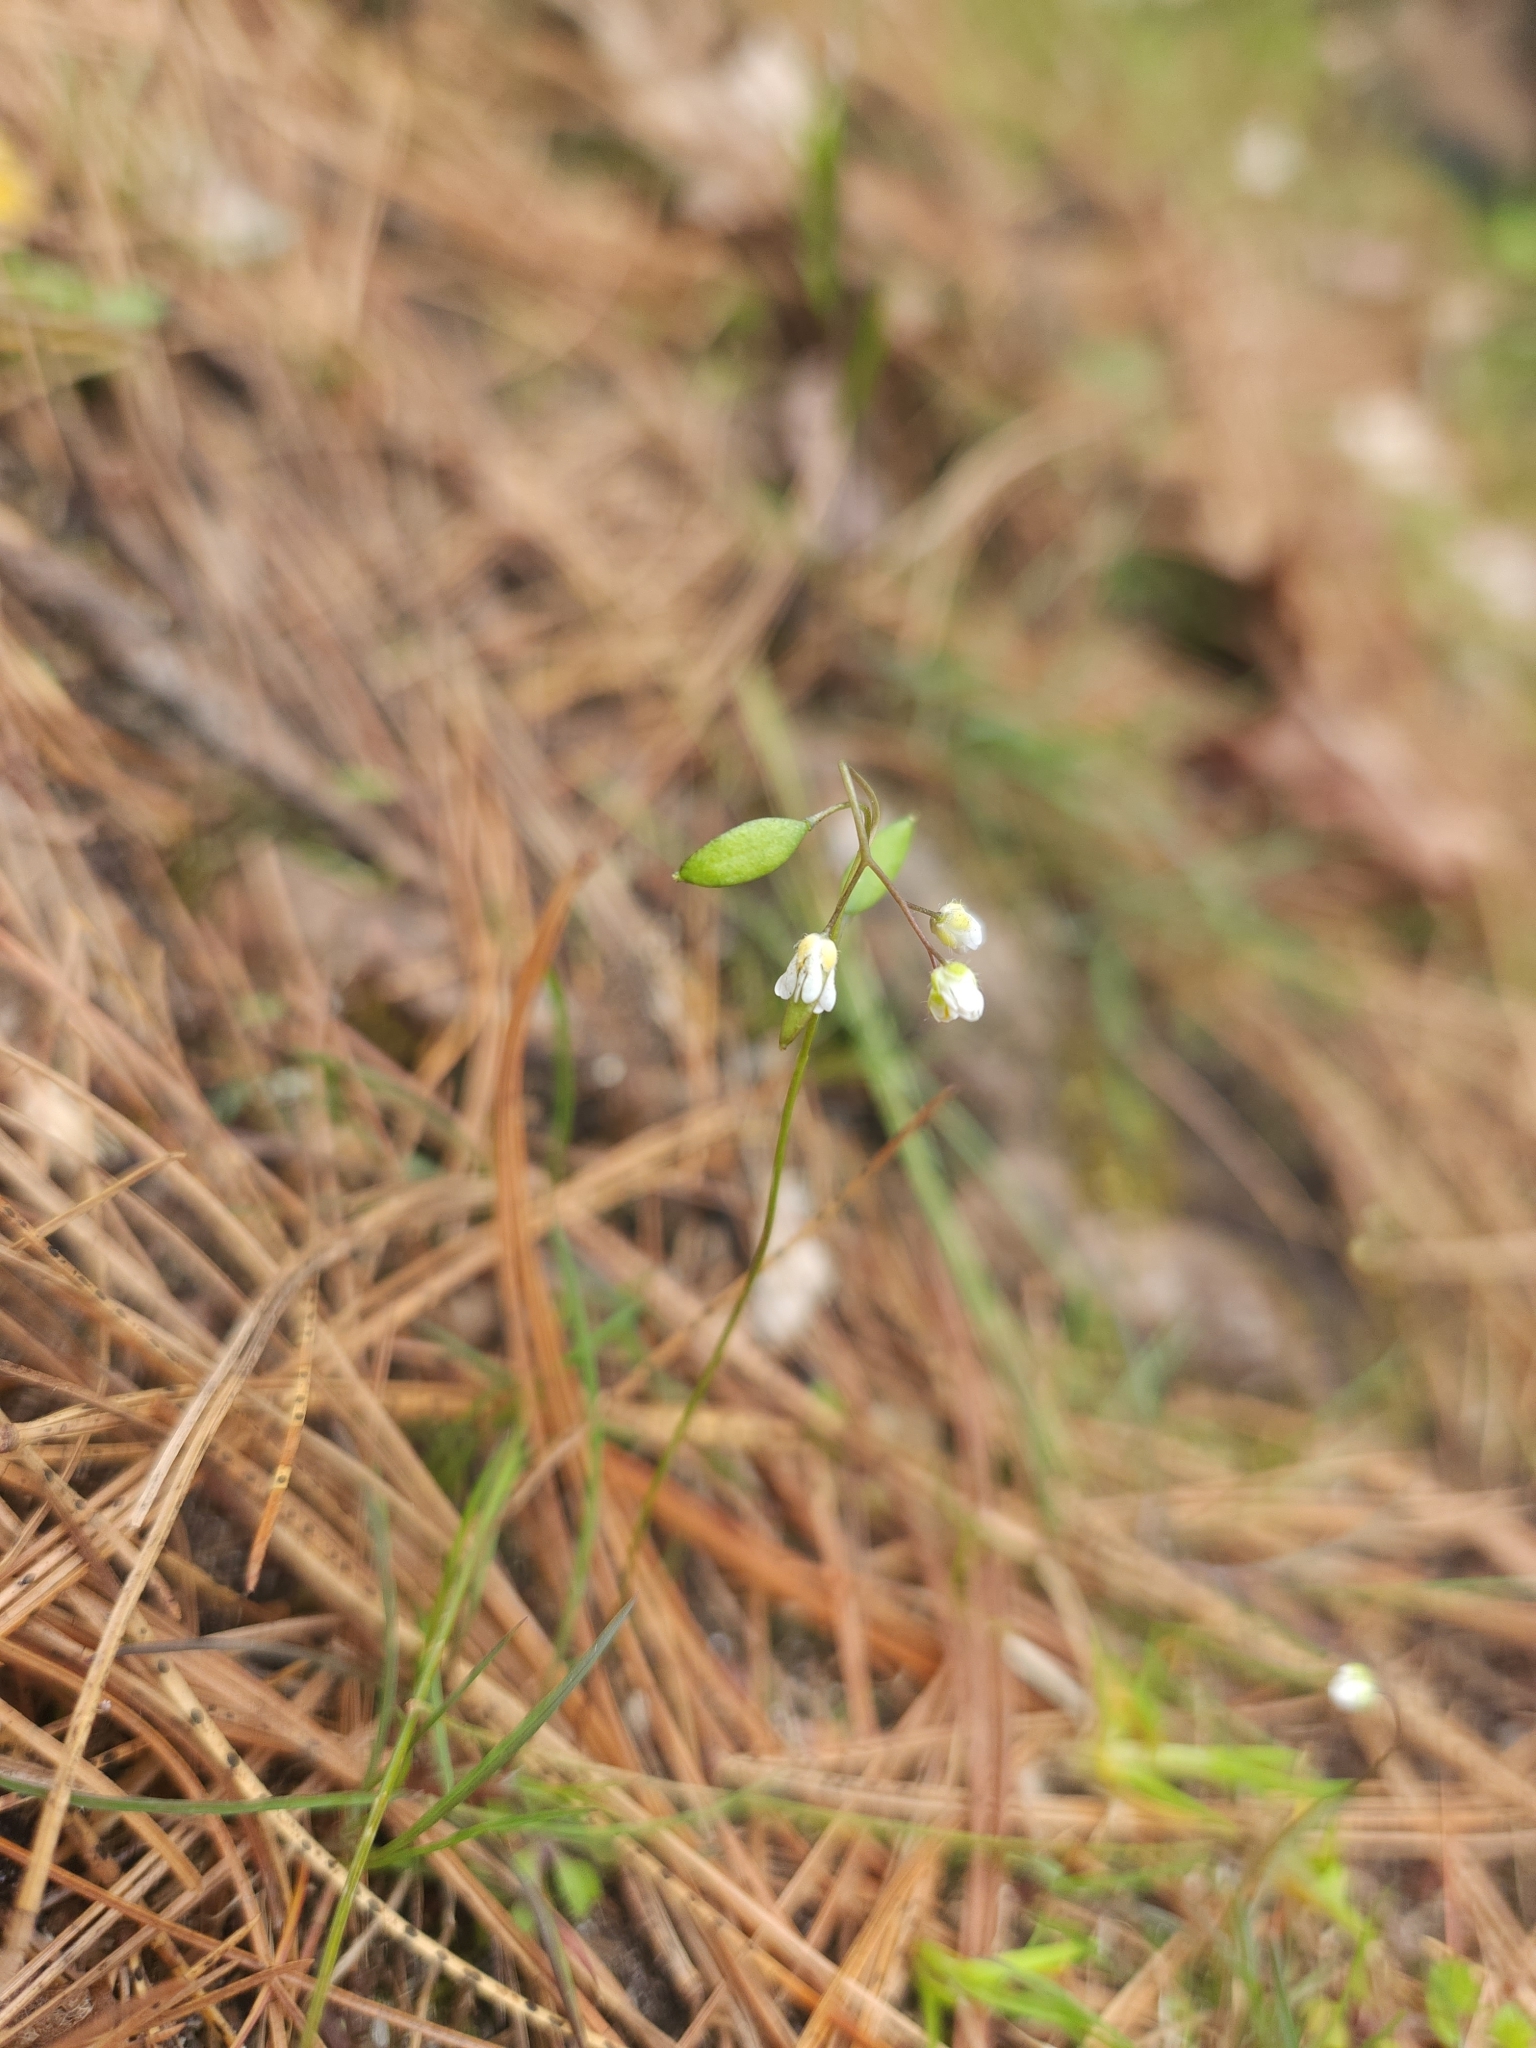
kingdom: Plantae
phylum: Tracheophyta
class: Magnoliopsida
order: Brassicales
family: Brassicaceae
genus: Draba
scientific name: Draba verna
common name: Spring draba
